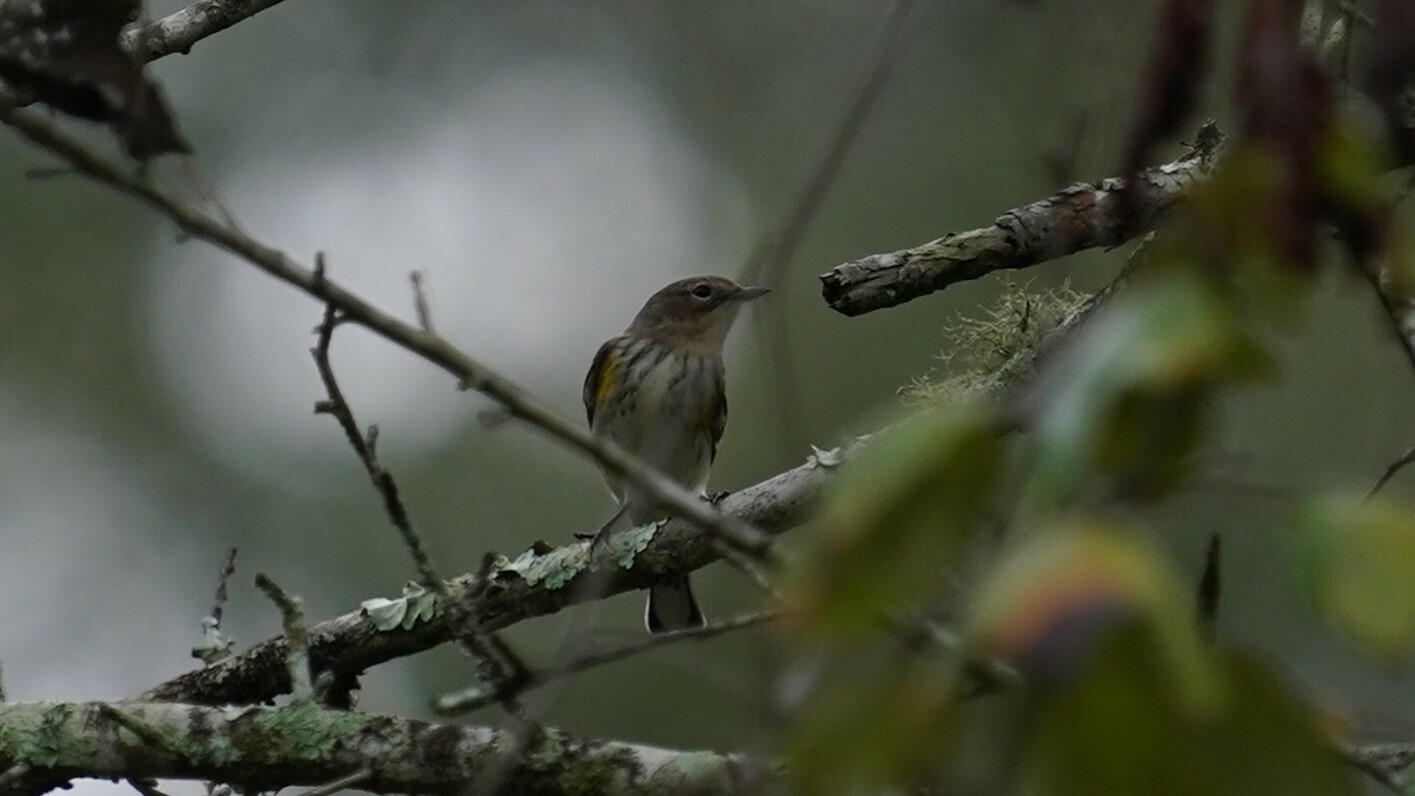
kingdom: Animalia
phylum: Chordata
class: Aves
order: Passeriformes
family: Parulidae
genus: Setophaga
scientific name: Setophaga coronata
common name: Myrtle warbler
